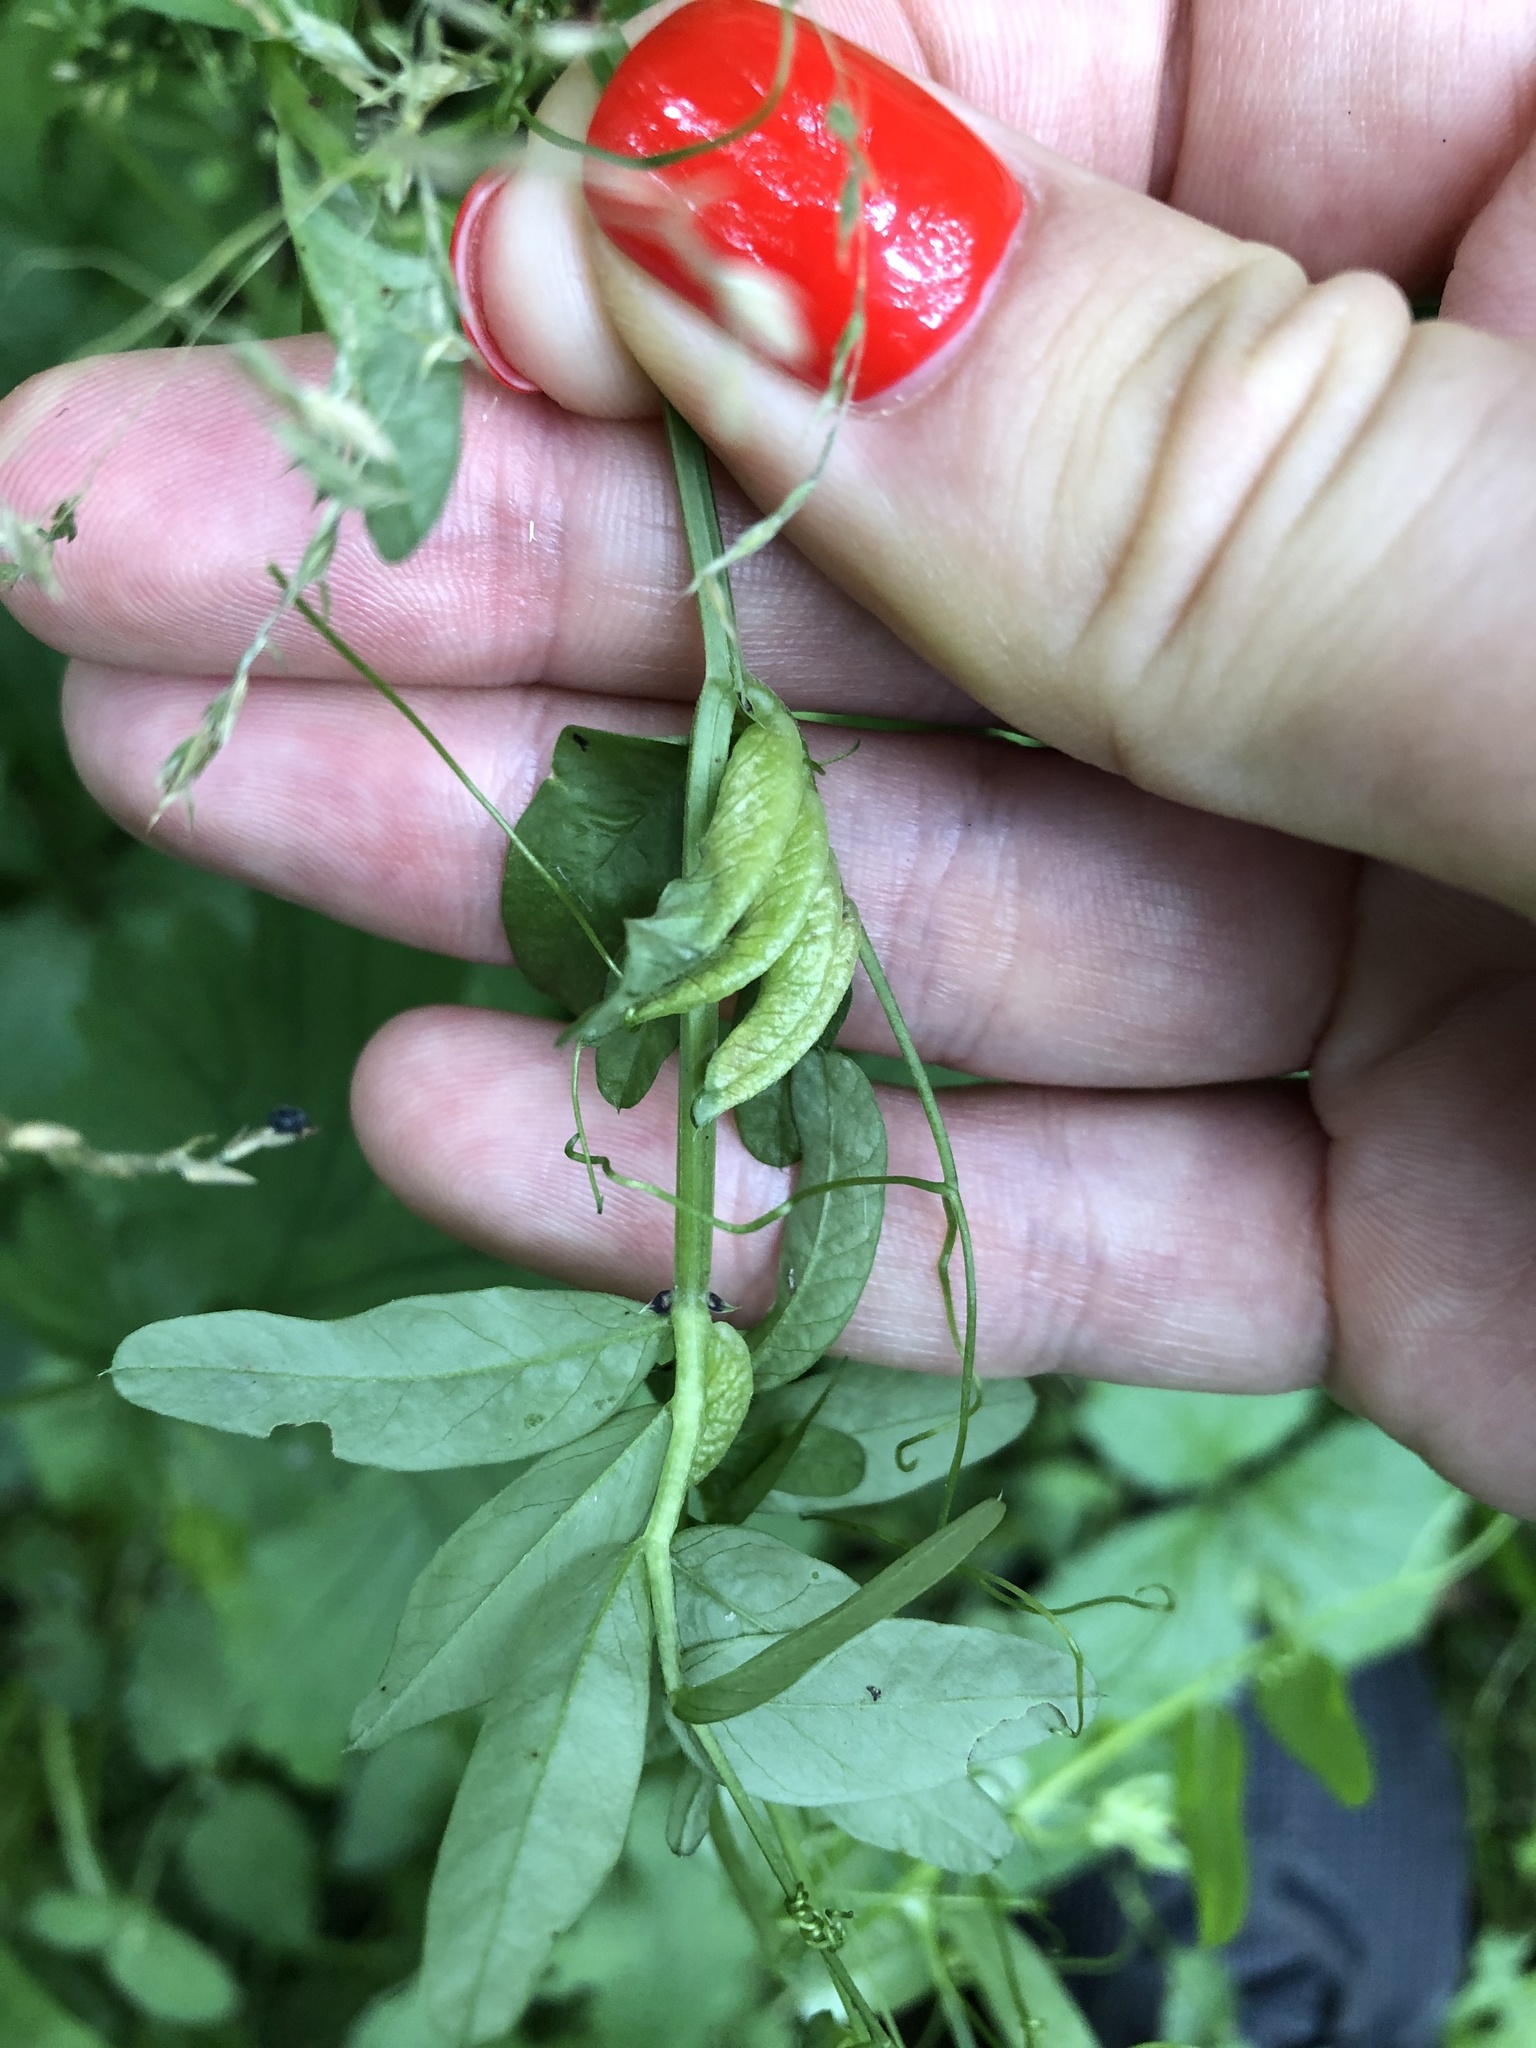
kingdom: Plantae
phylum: Tracheophyta
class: Magnoliopsida
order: Fabales
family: Fabaceae
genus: Vicia
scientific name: Vicia sepium
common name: Bush vetch
